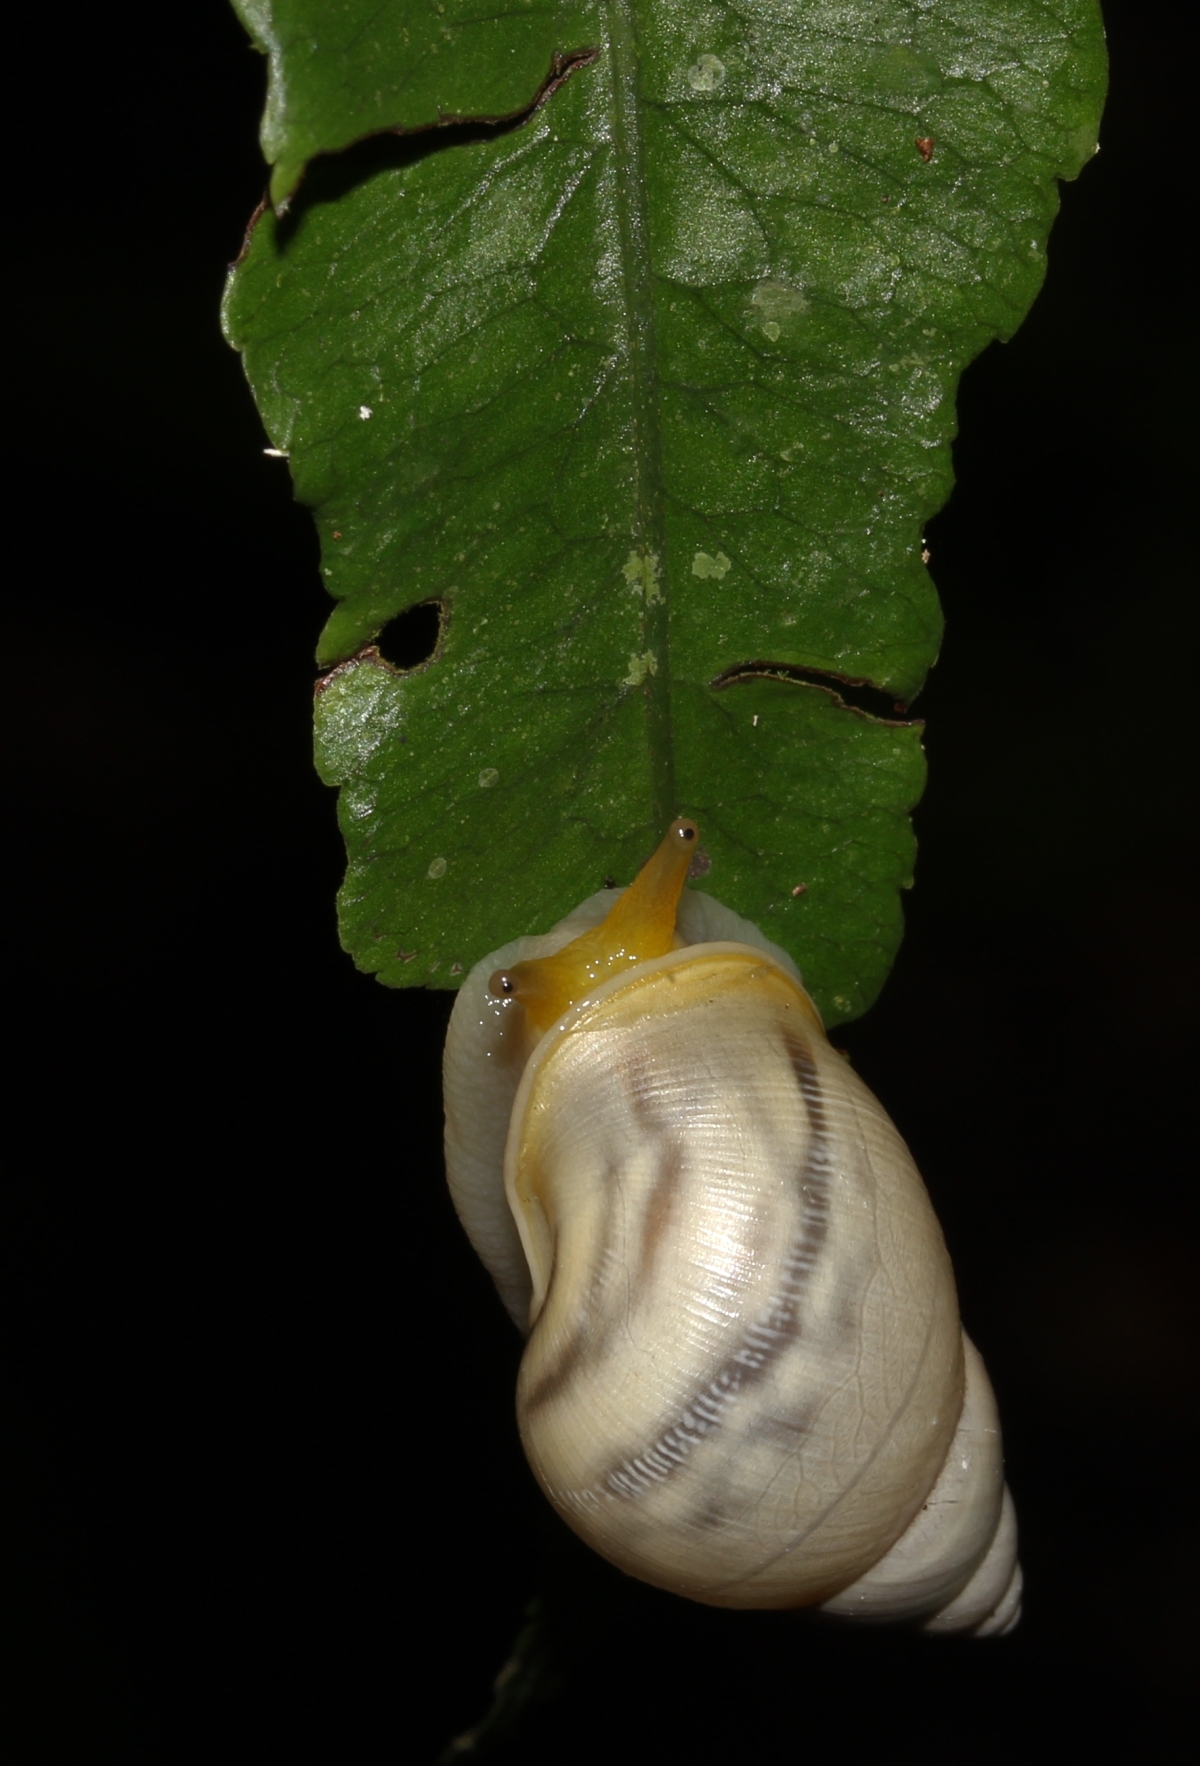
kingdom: Animalia
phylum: Mollusca
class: Gastropoda
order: Stylommatophora
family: Bulimulidae
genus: Drymaeus
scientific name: Drymaeus branneri
